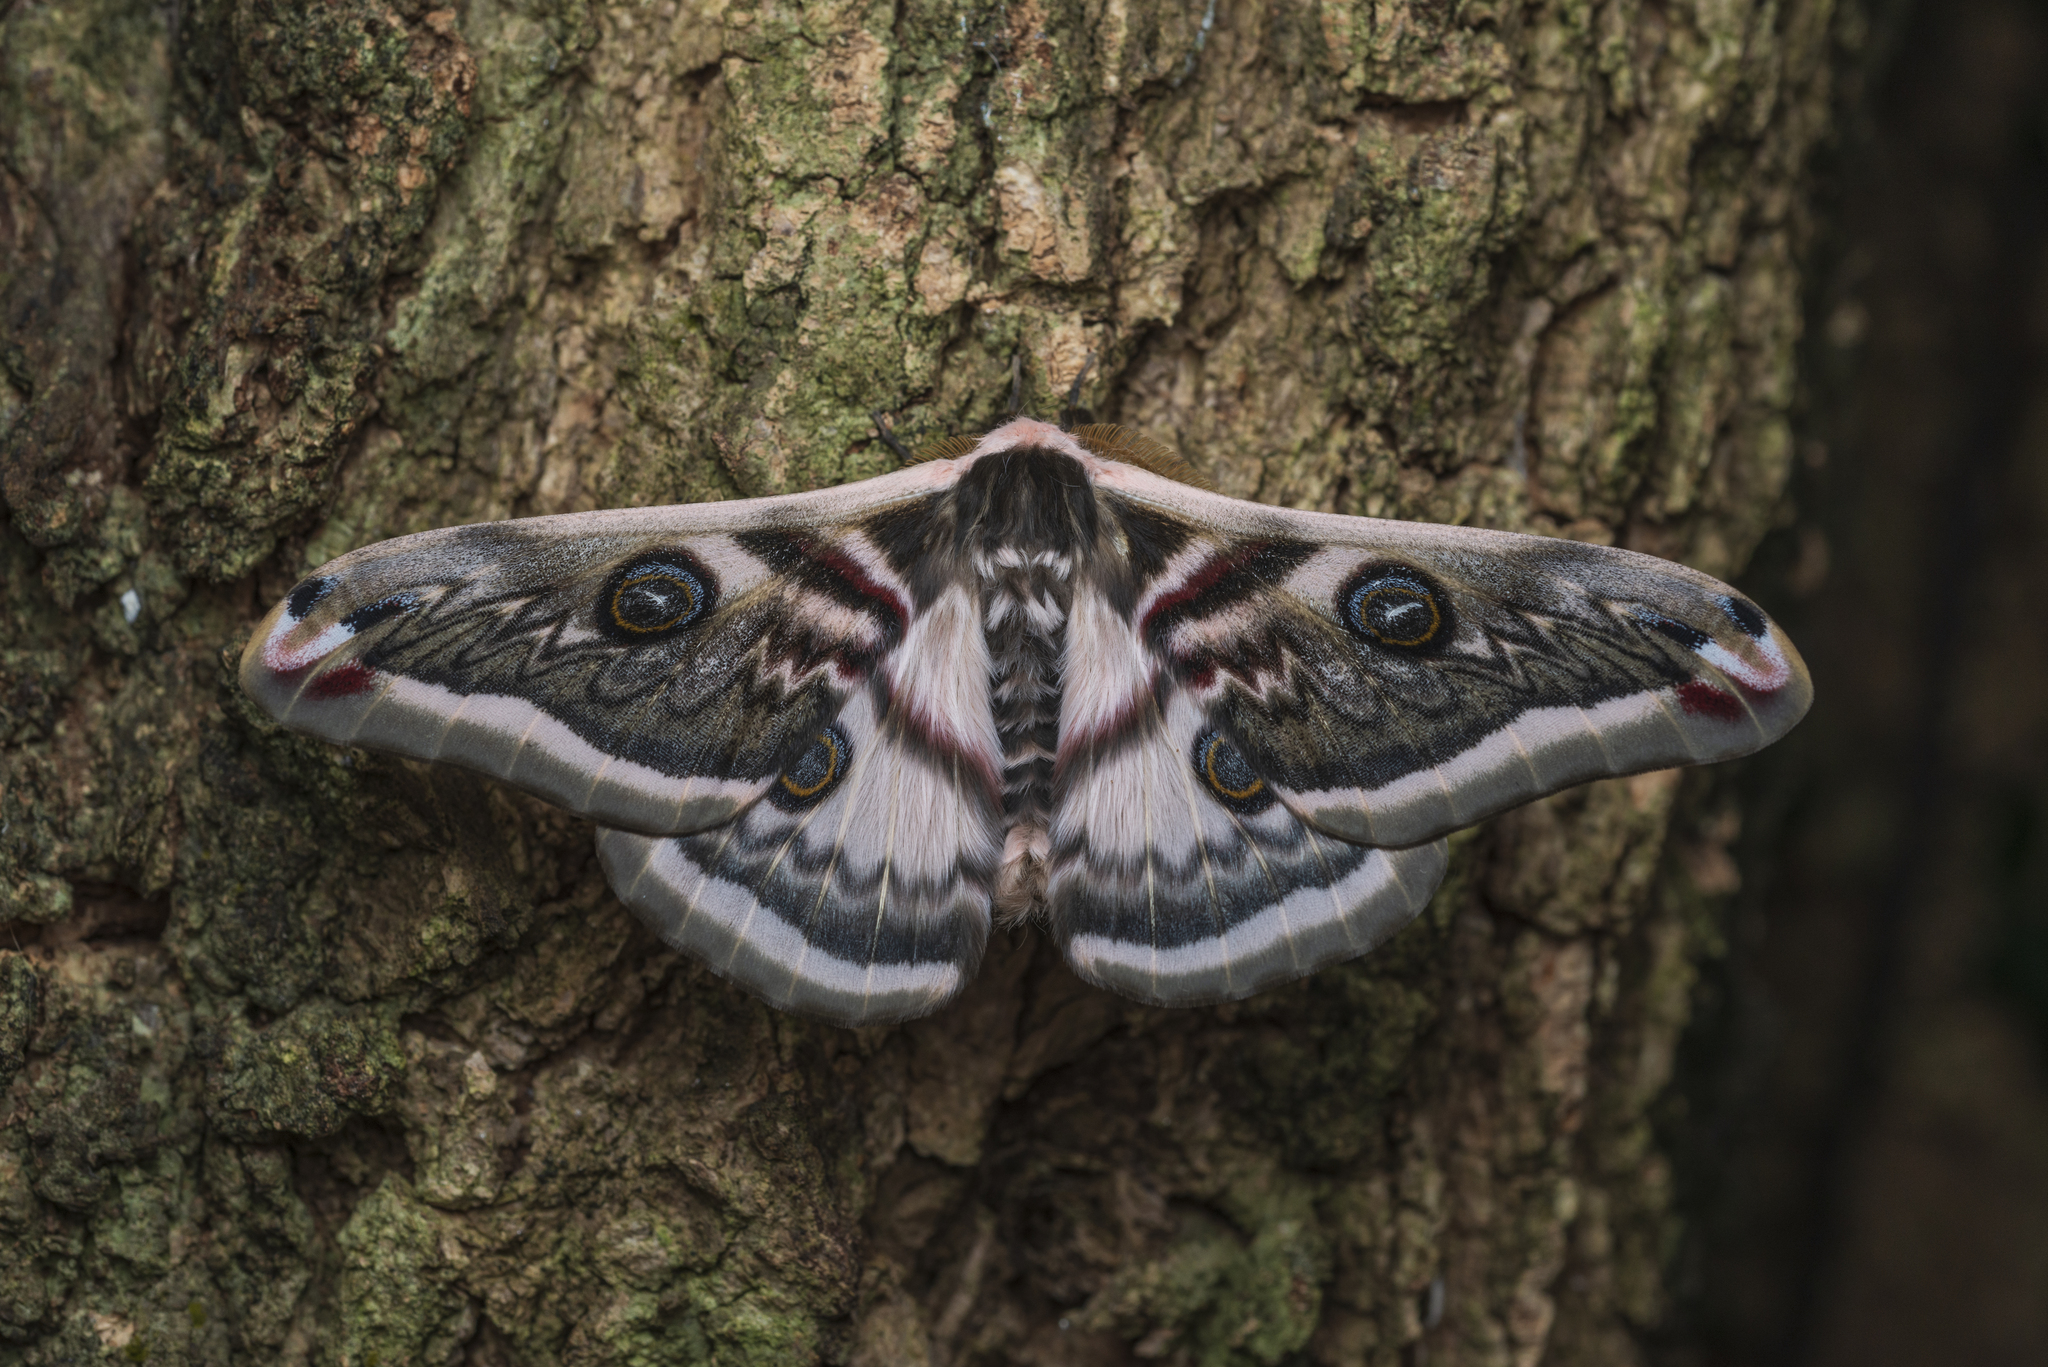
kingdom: Animalia
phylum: Arthropoda
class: Insecta
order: Lepidoptera
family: Saturniidae
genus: Saturnia
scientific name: Saturnia pyretorum
